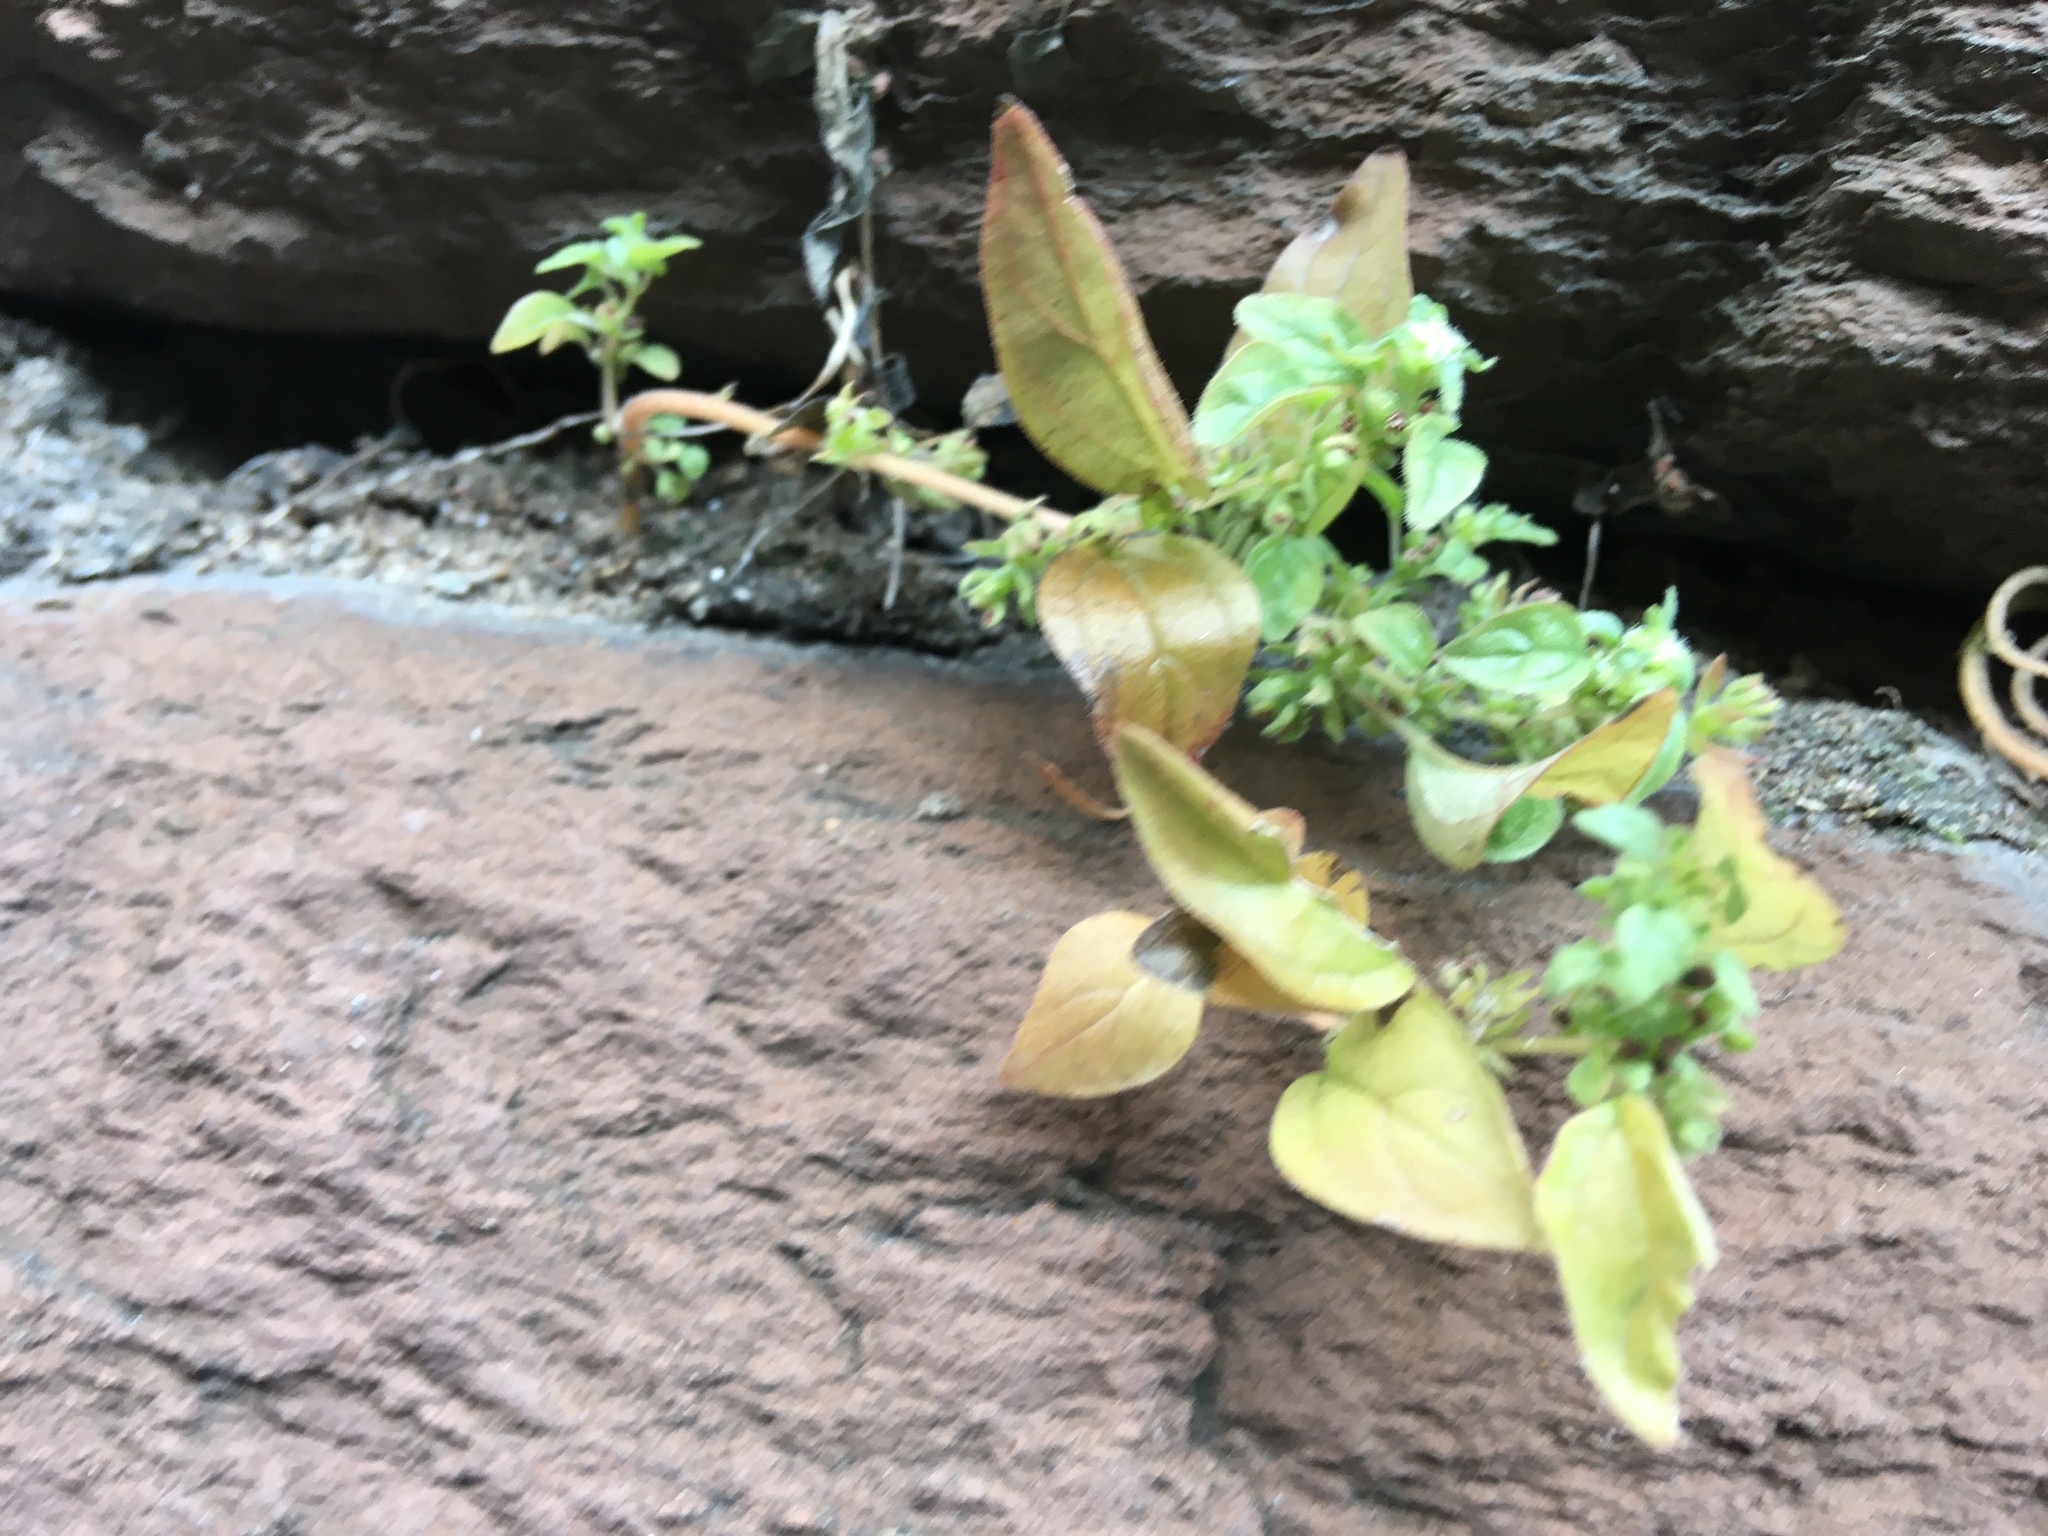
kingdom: Plantae
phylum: Tracheophyta
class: Magnoliopsida
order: Rosales
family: Urticaceae
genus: Parietaria
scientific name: Parietaria pensylvanica
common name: Pennsylvania pellitory
